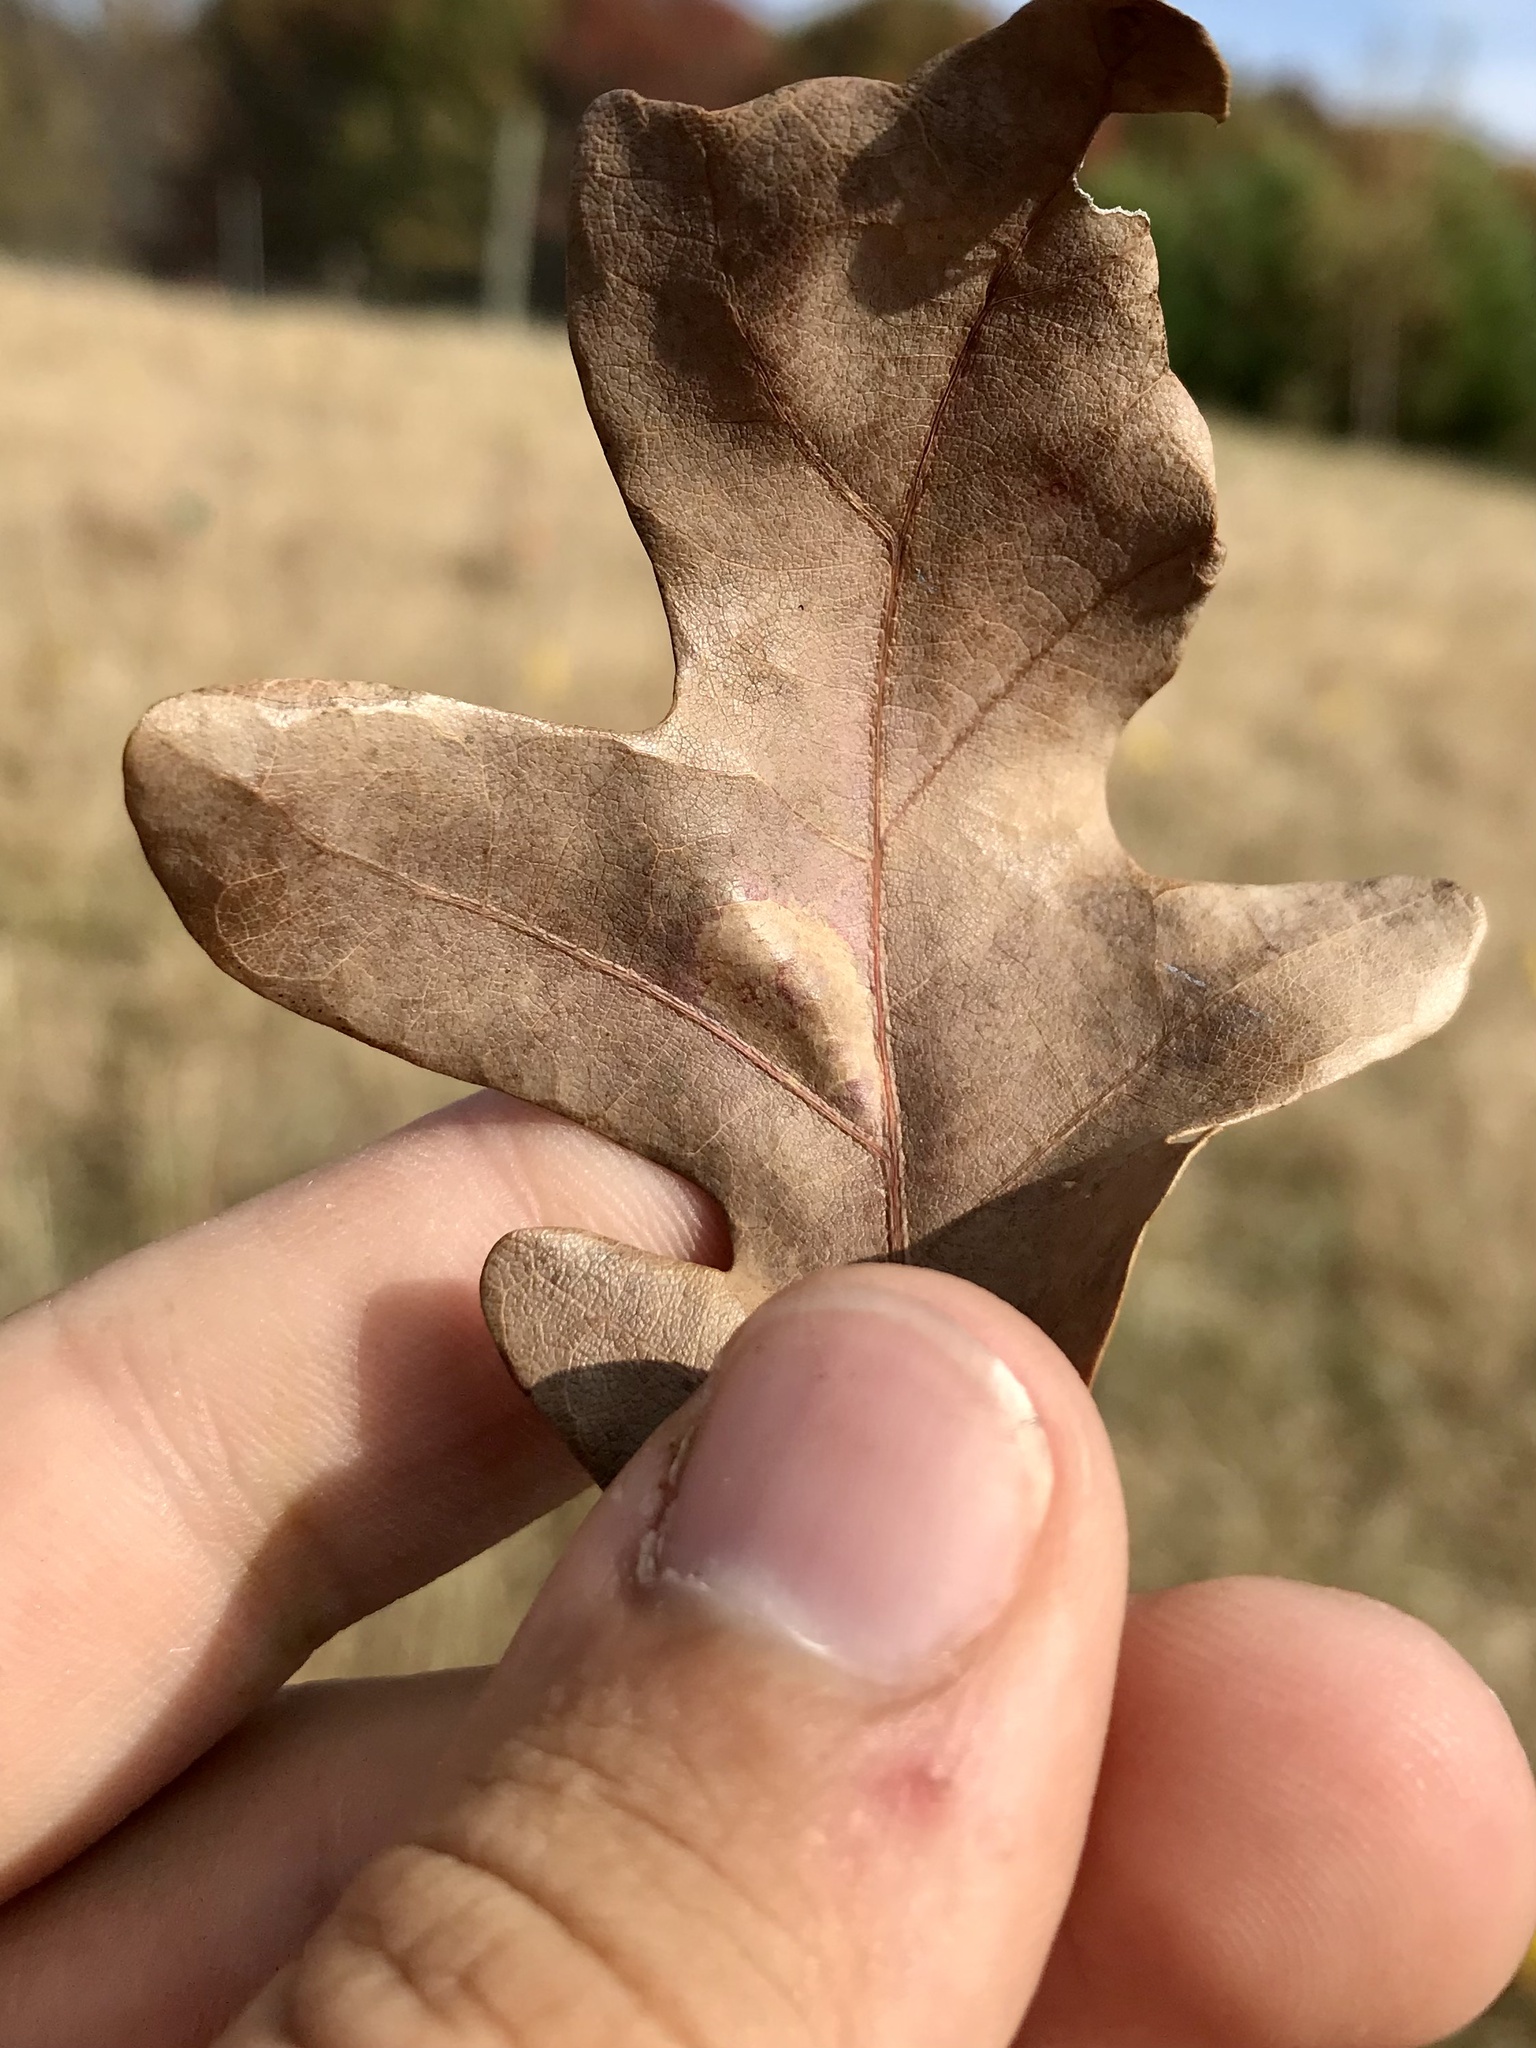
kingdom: Animalia
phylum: Arthropoda
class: Insecta
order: Lepidoptera
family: Gracillariidae
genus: Phyllonorycter
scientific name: Phyllonorycter fitchella
